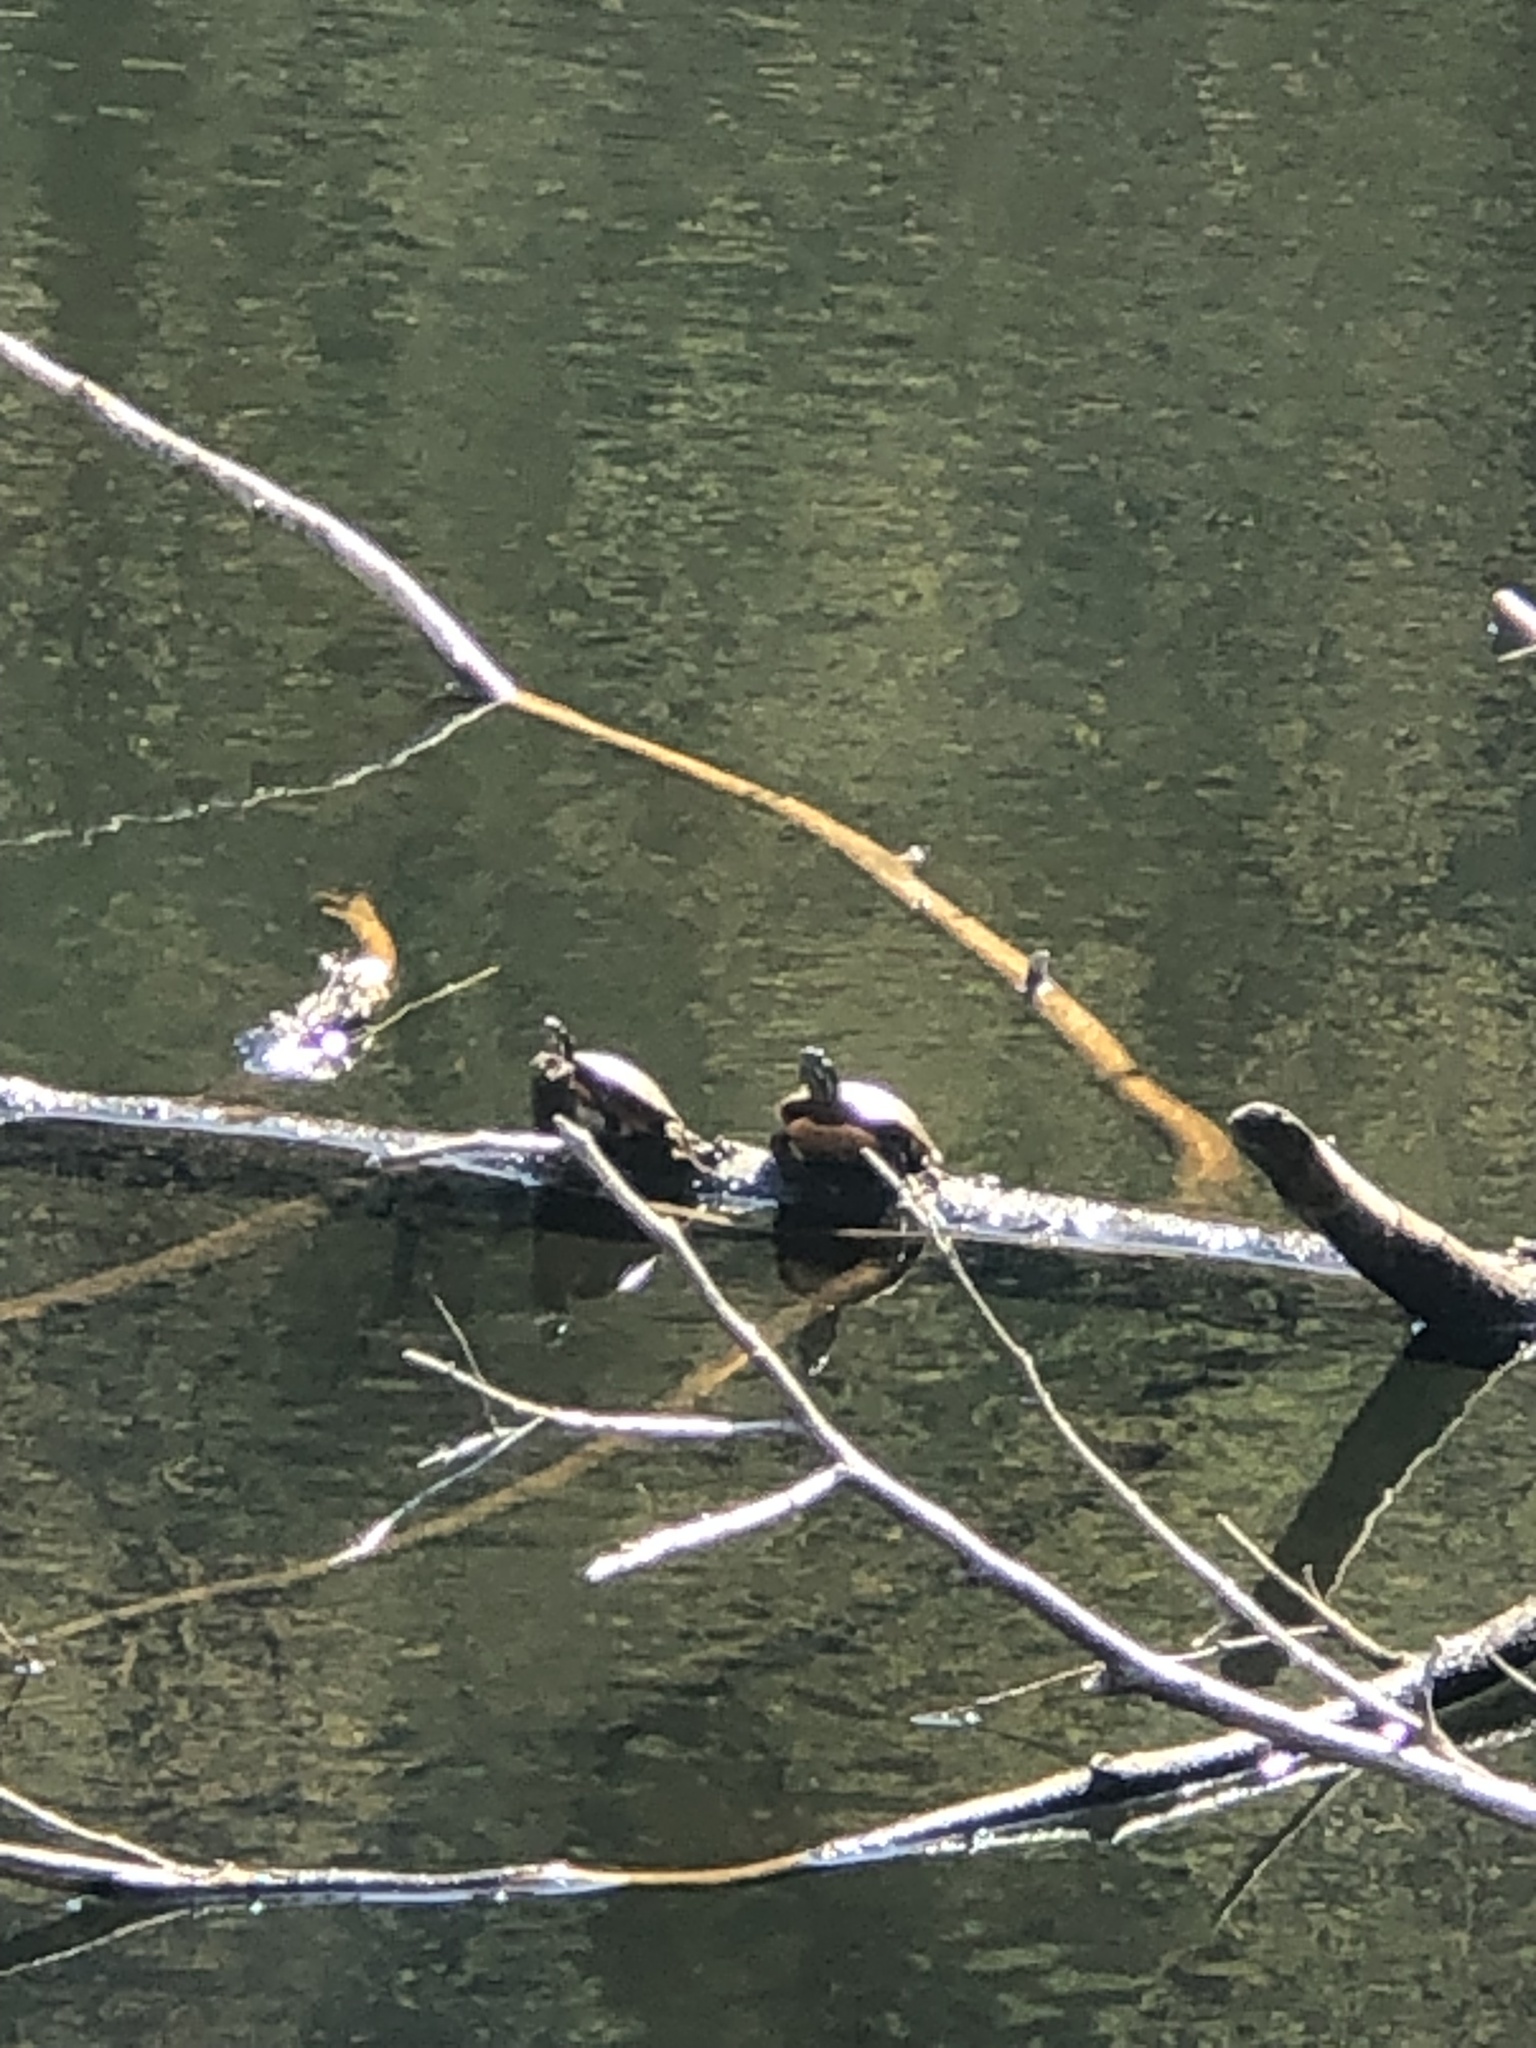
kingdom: Animalia
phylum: Chordata
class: Testudines
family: Emydidae
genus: Chrysemys
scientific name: Chrysemys picta
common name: Painted turtle
